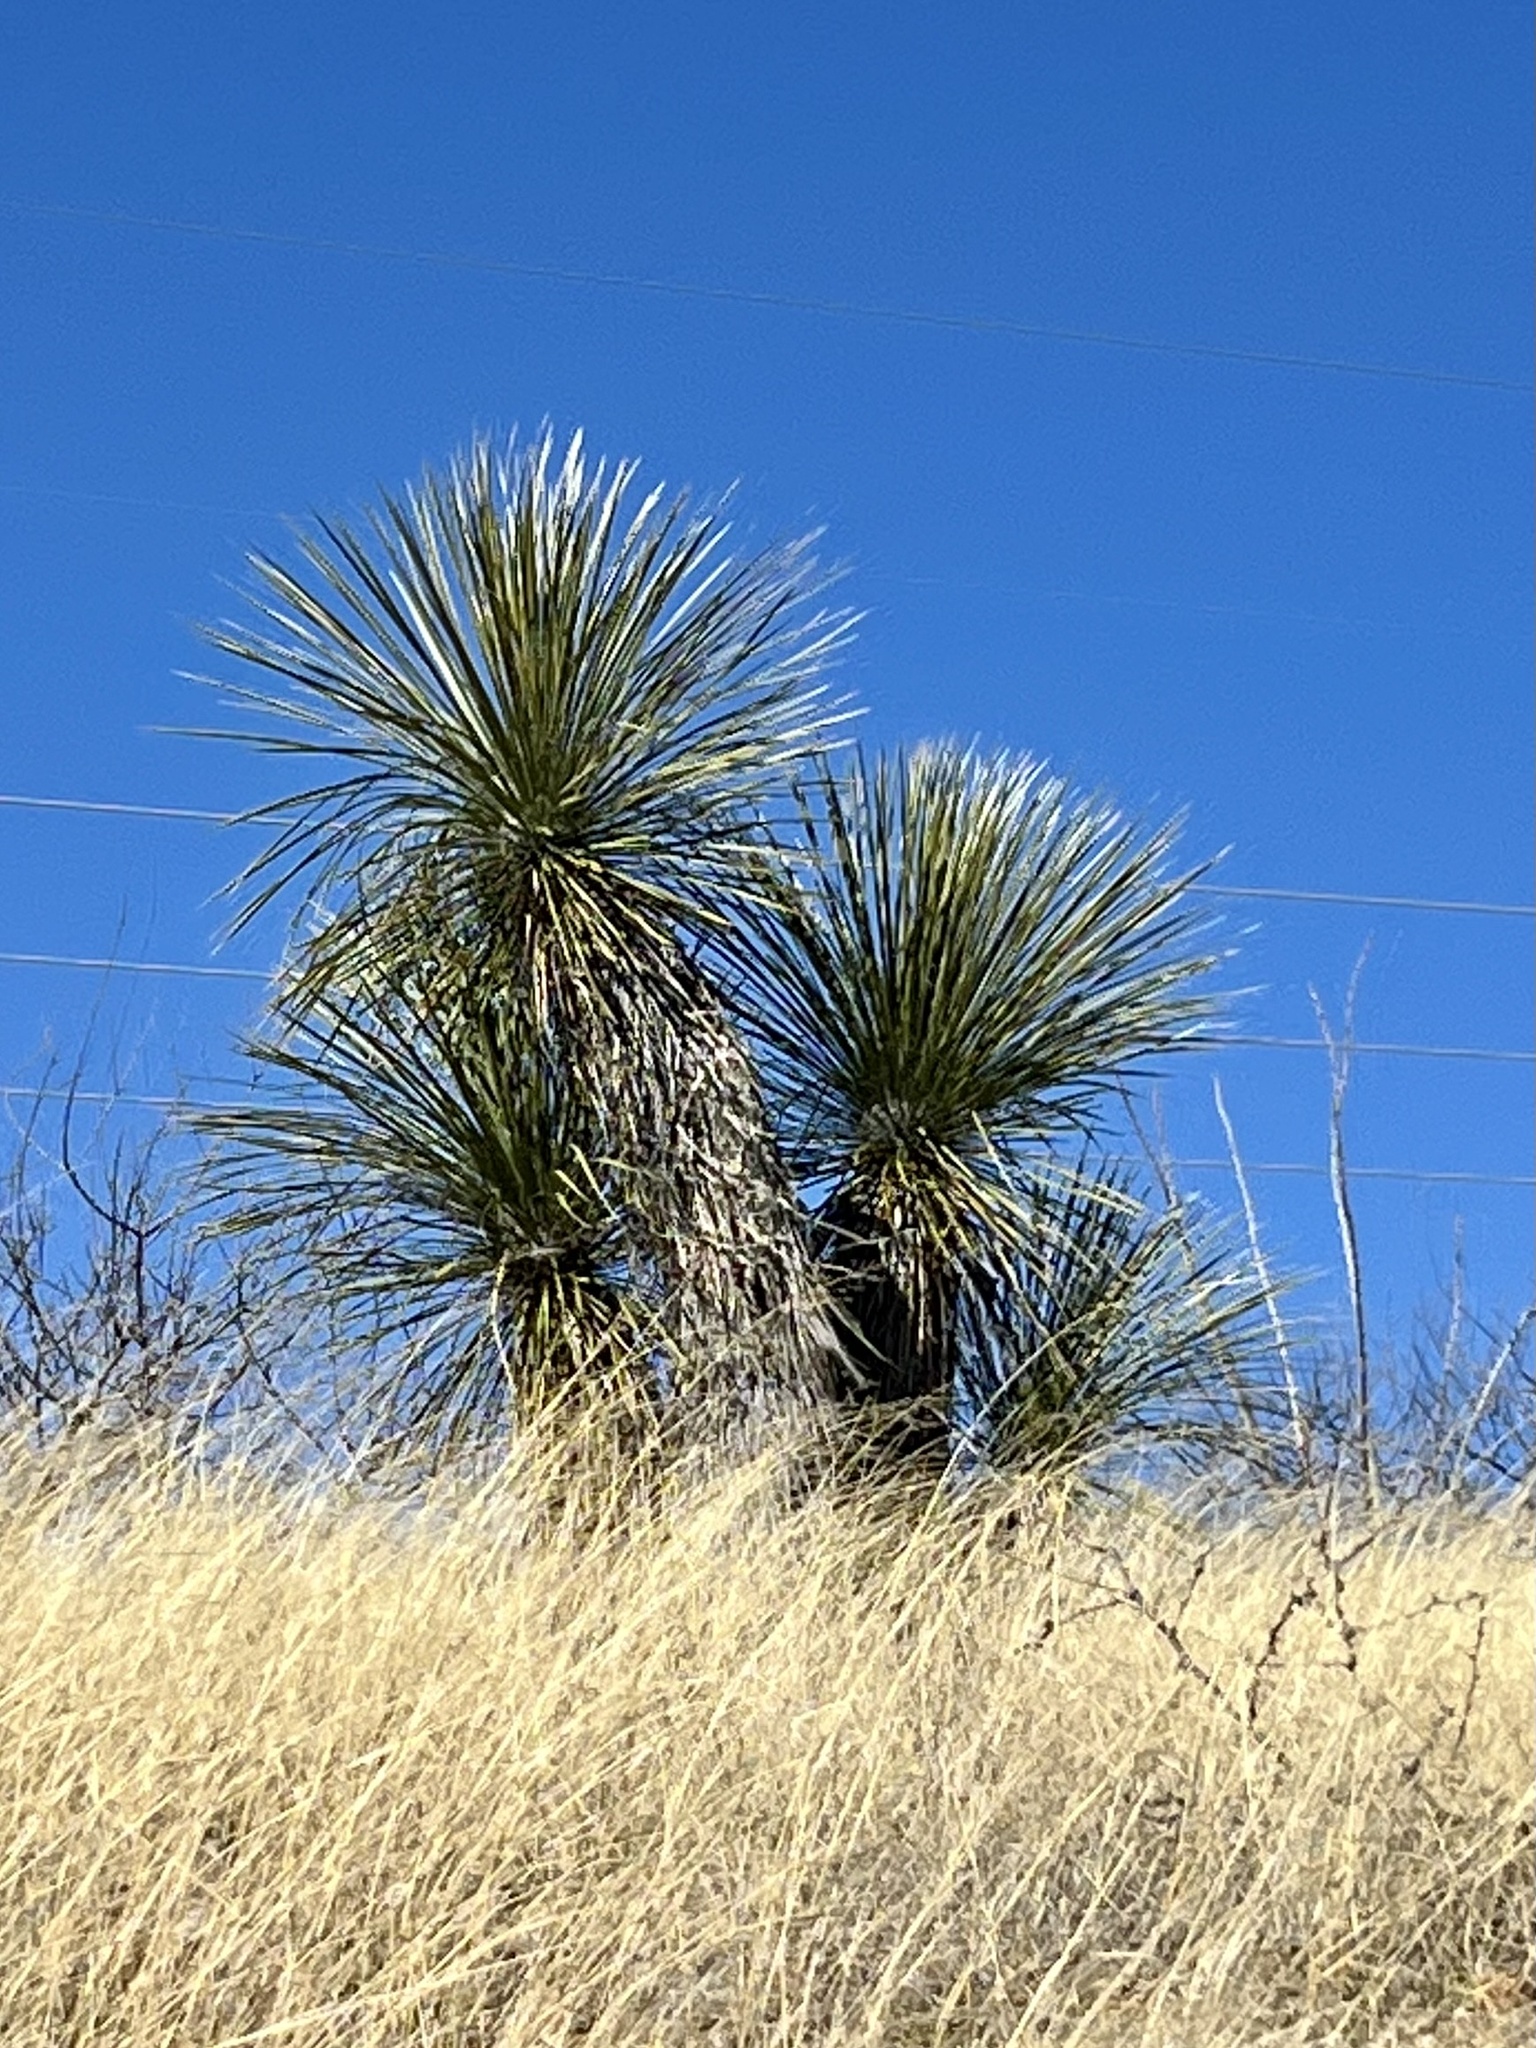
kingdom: Plantae
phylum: Tracheophyta
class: Liliopsida
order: Asparagales
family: Asparagaceae
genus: Yucca
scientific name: Yucca elata
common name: Palmella
